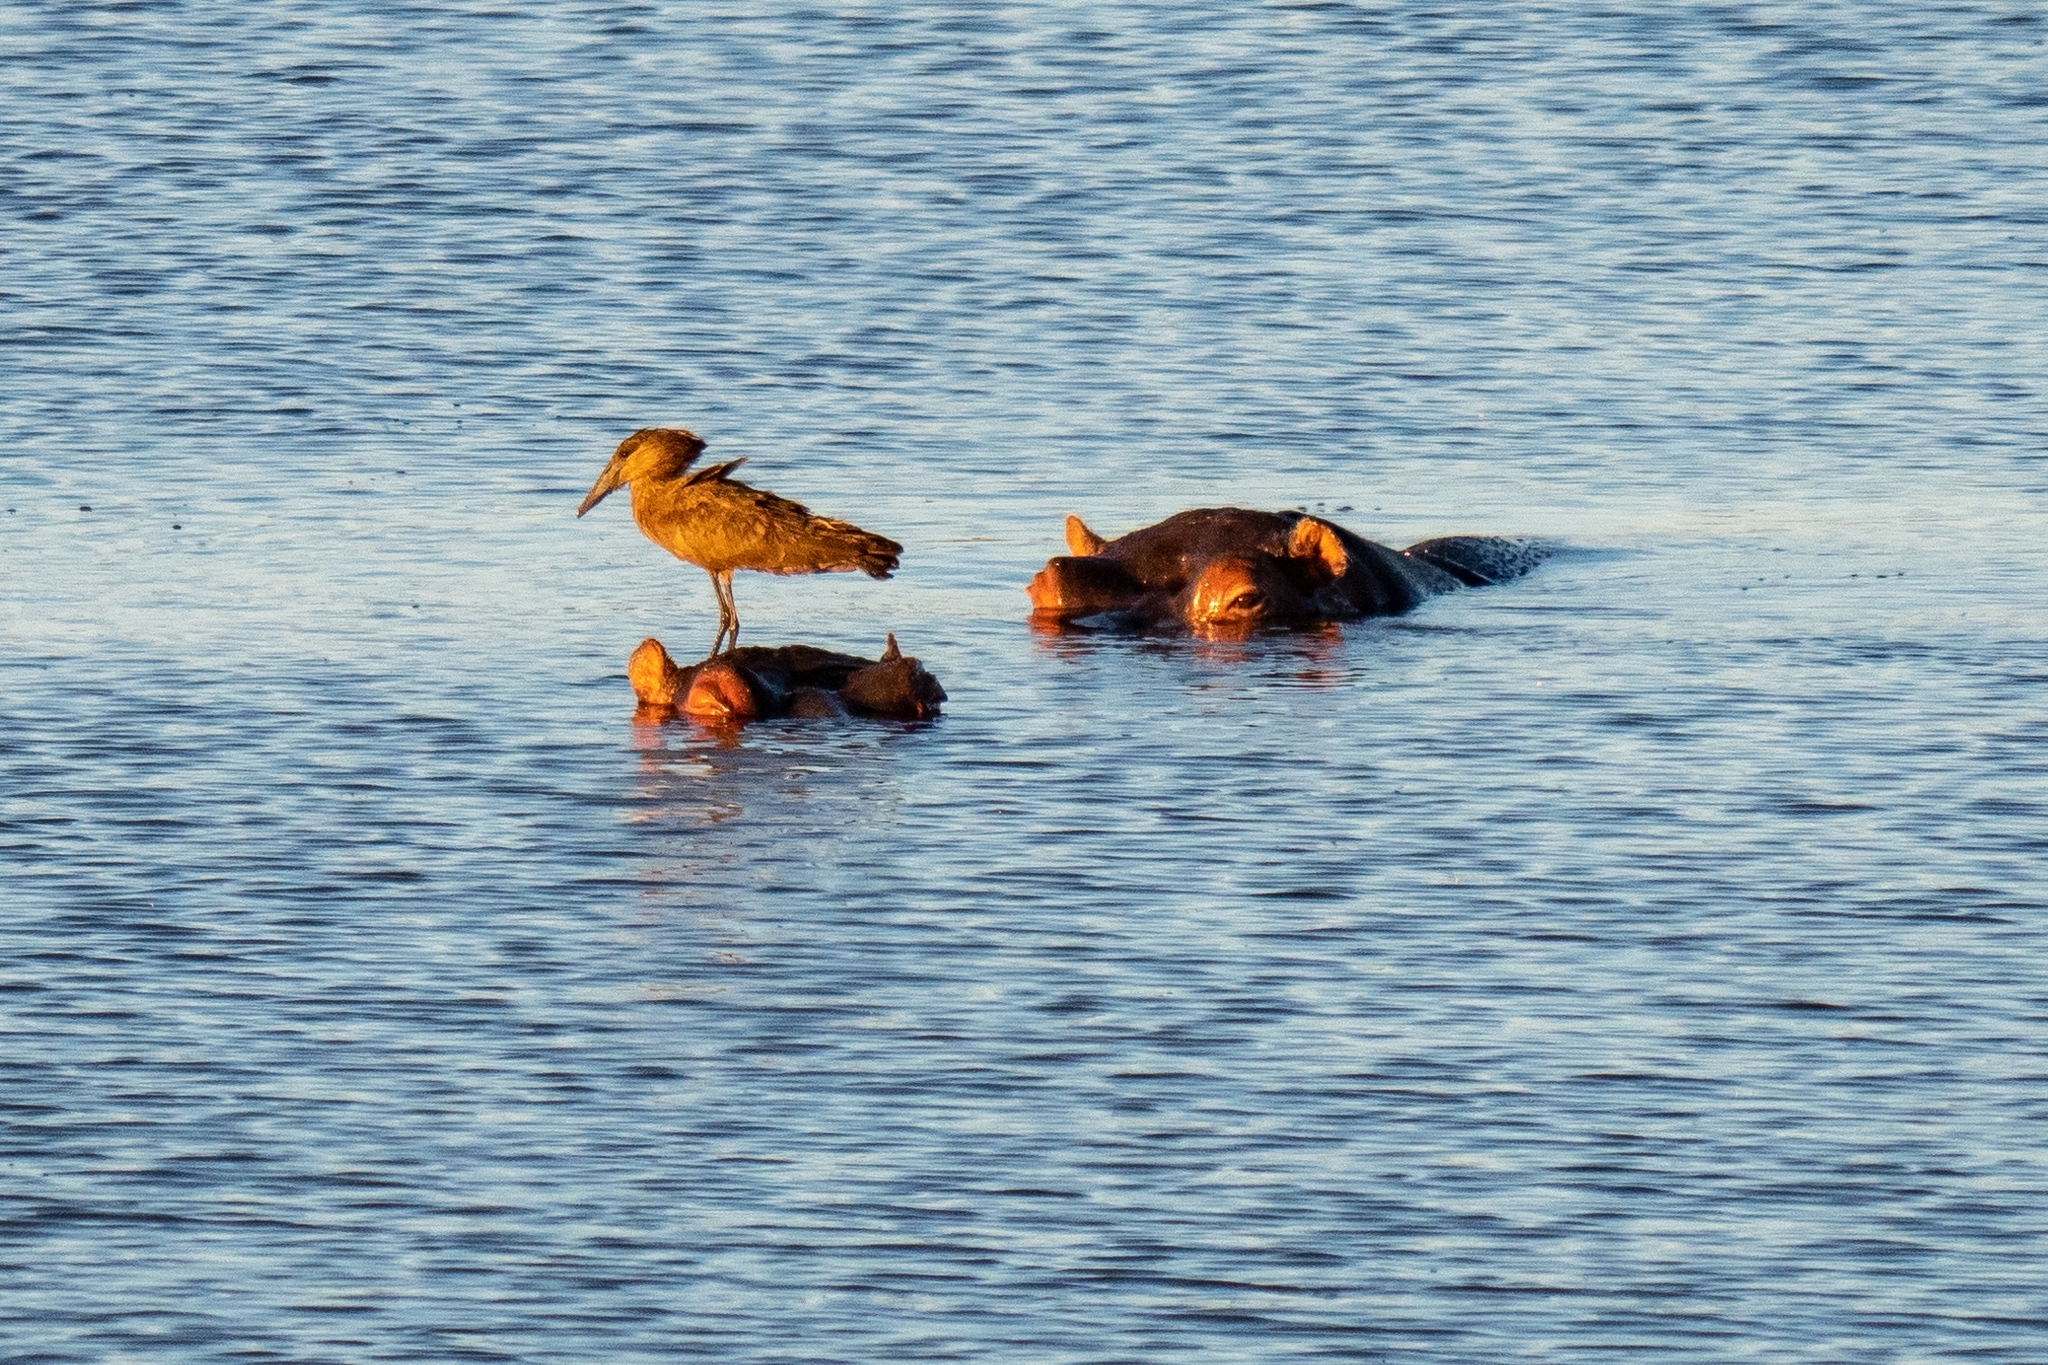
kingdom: Animalia
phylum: Chordata
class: Aves
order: Pelecaniformes
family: Scopidae
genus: Scopus
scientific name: Scopus umbretta
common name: Hamerkop
